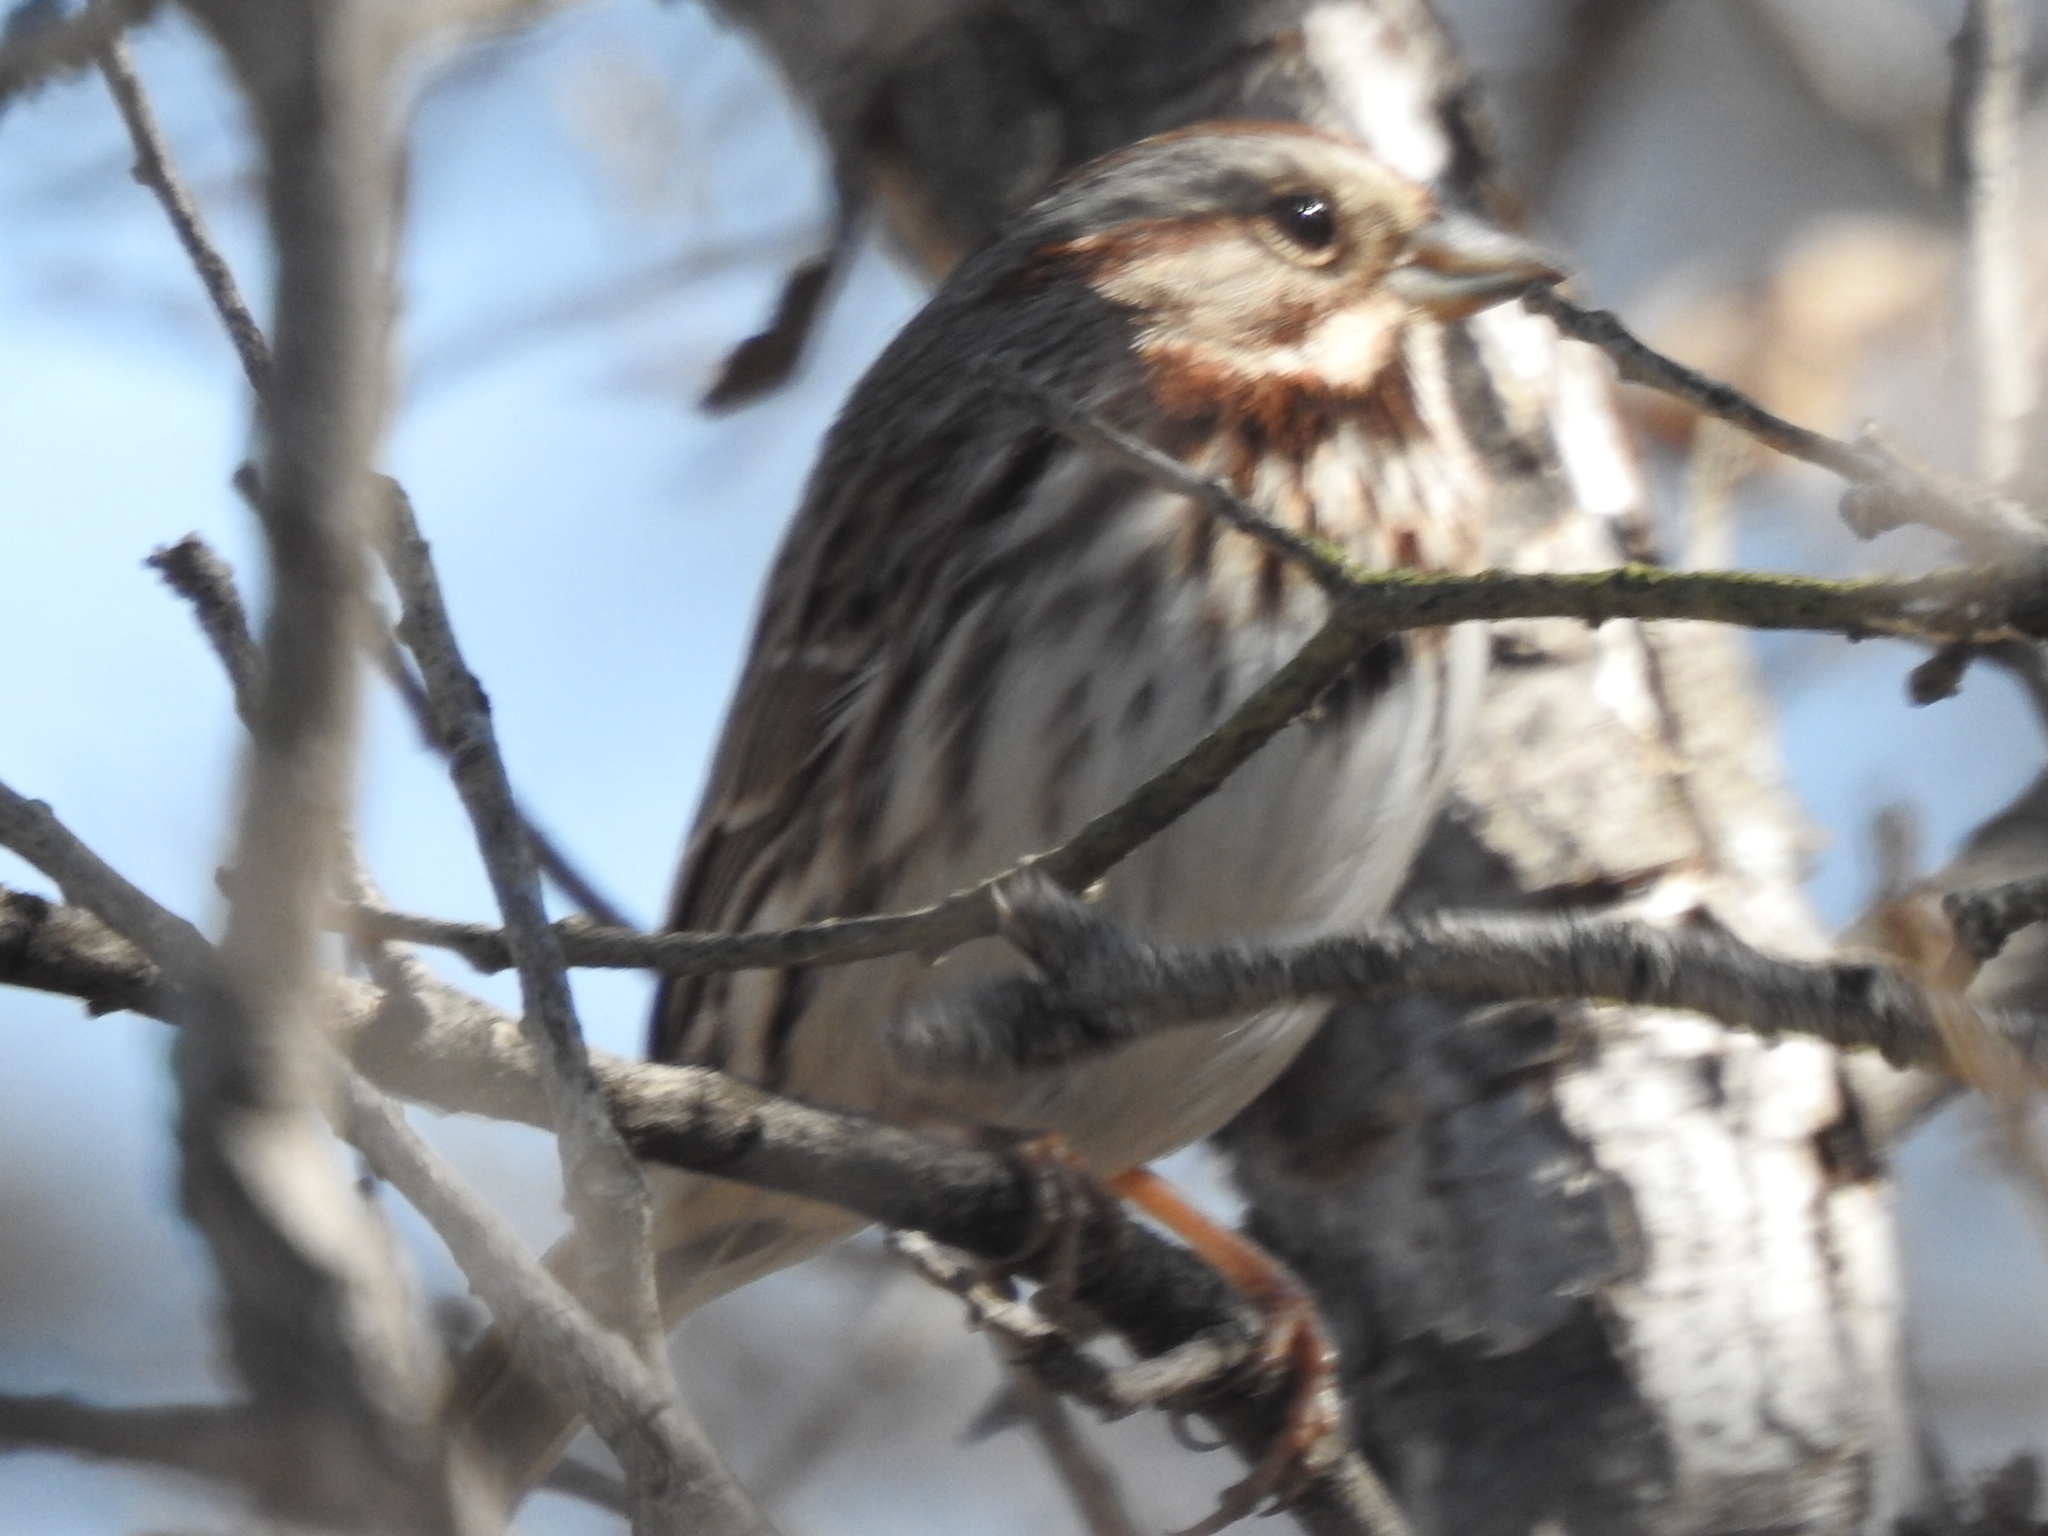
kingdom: Animalia
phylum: Chordata
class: Aves
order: Passeriformes
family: Passerellidae
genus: Melospiza
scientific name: Melospiza melodia
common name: Song sparrow
